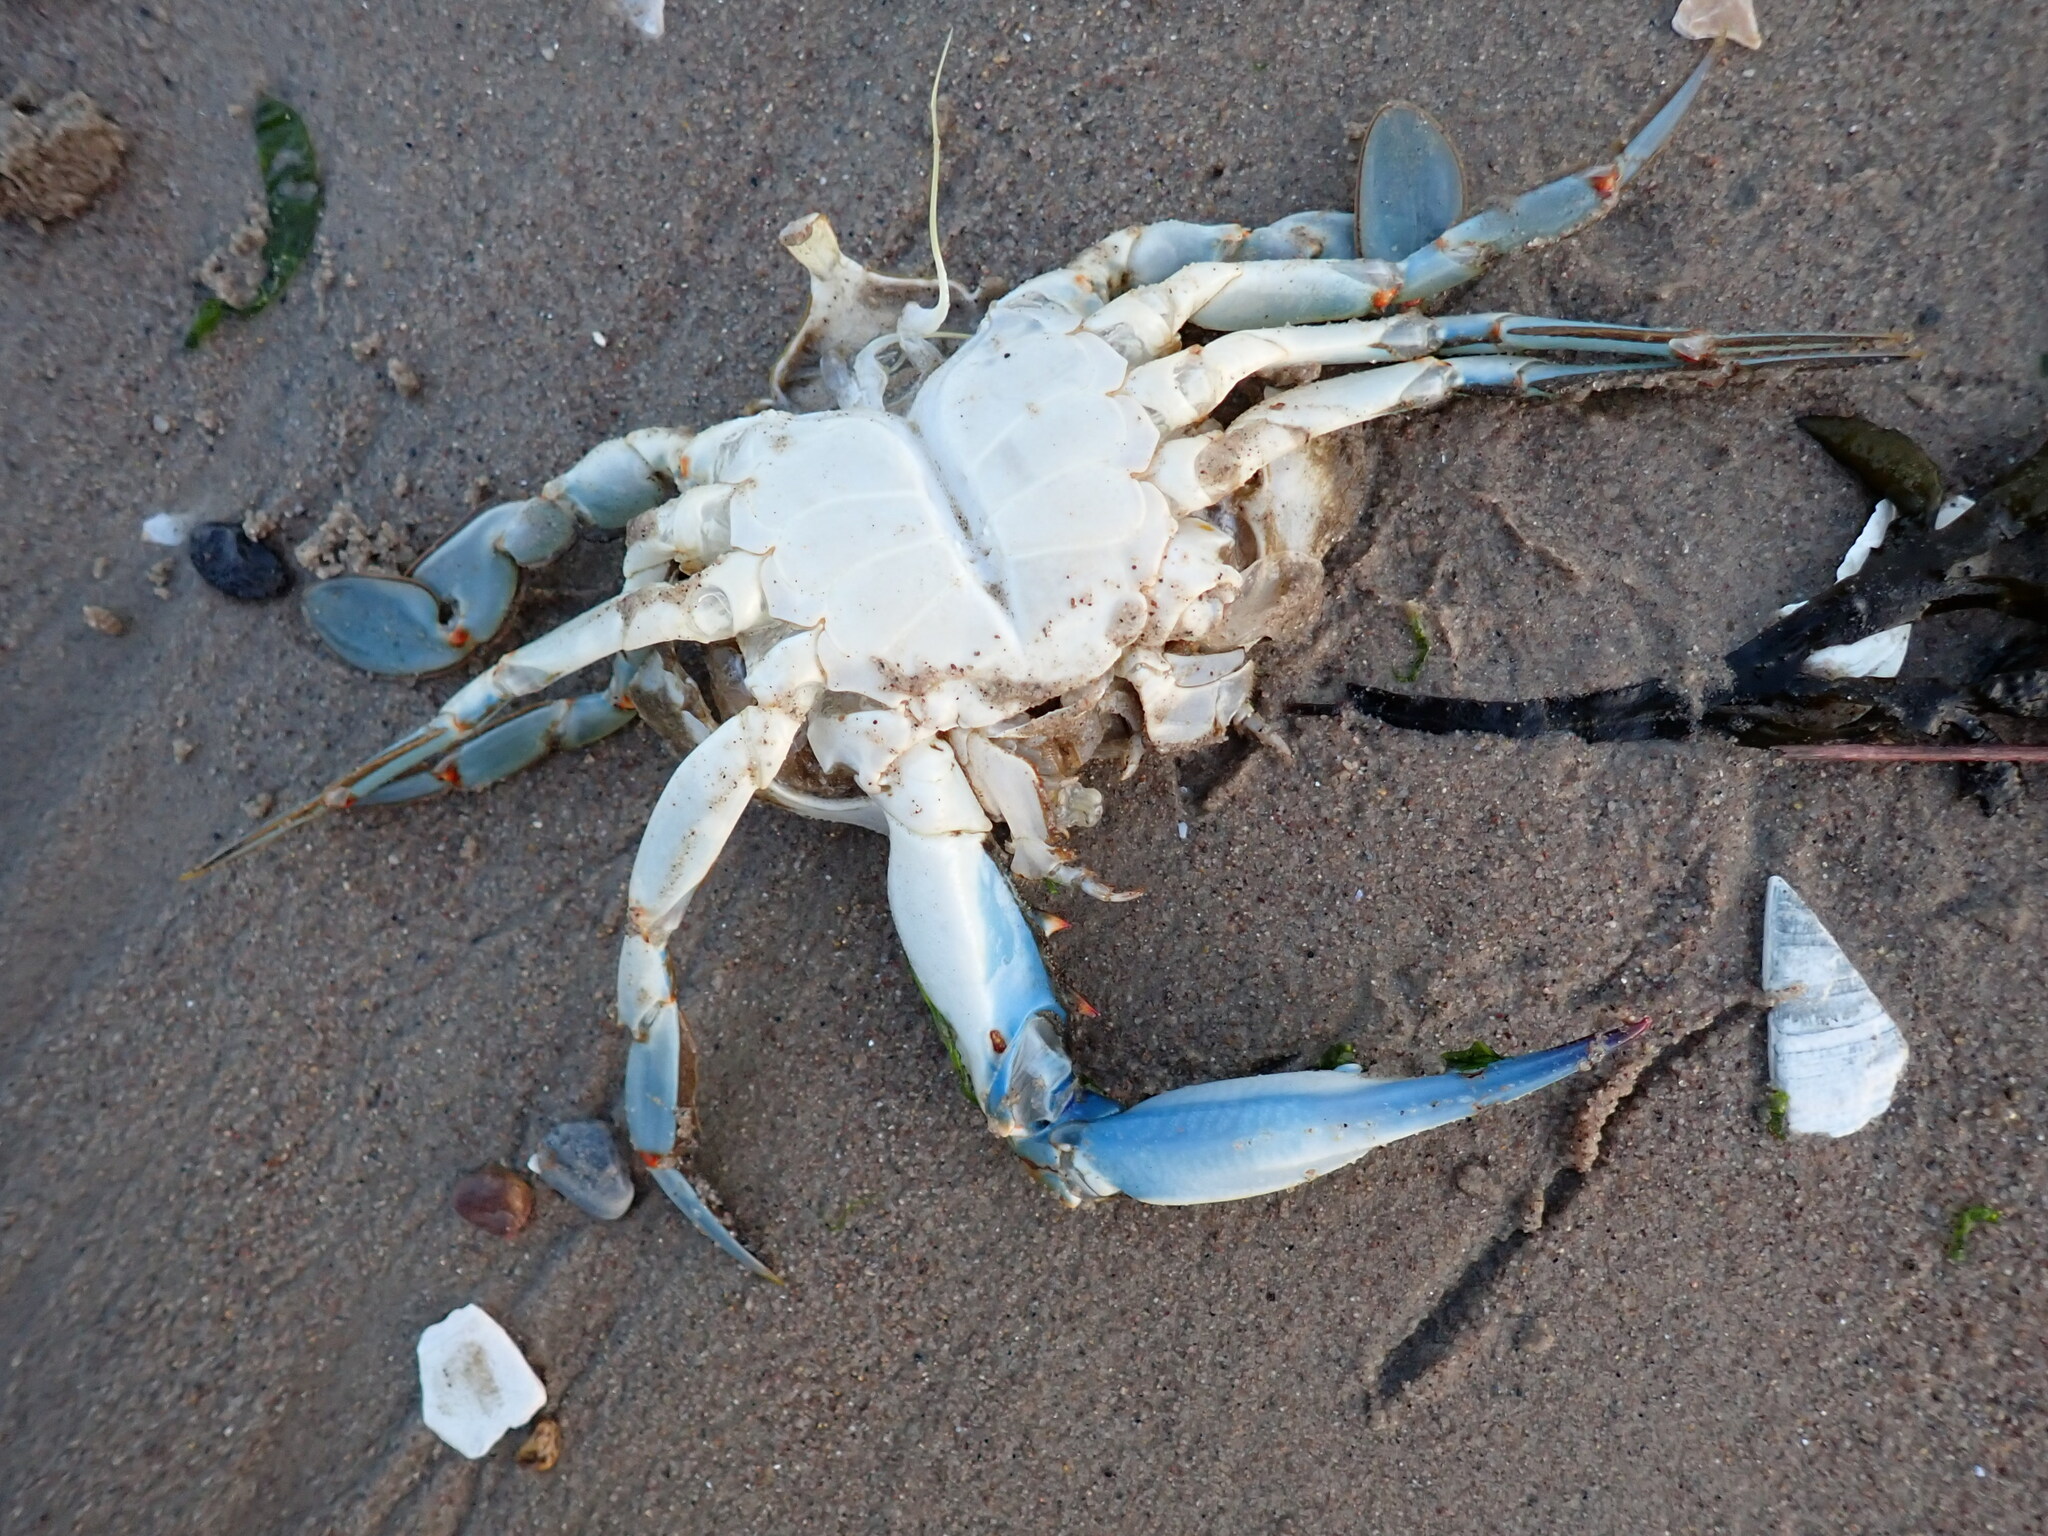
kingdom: Animalia
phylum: Arthropoda
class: Malacostraca
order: Decapoda
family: Portunidae
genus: Callinectes
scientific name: Callinectes sapidus
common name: Blue crab
